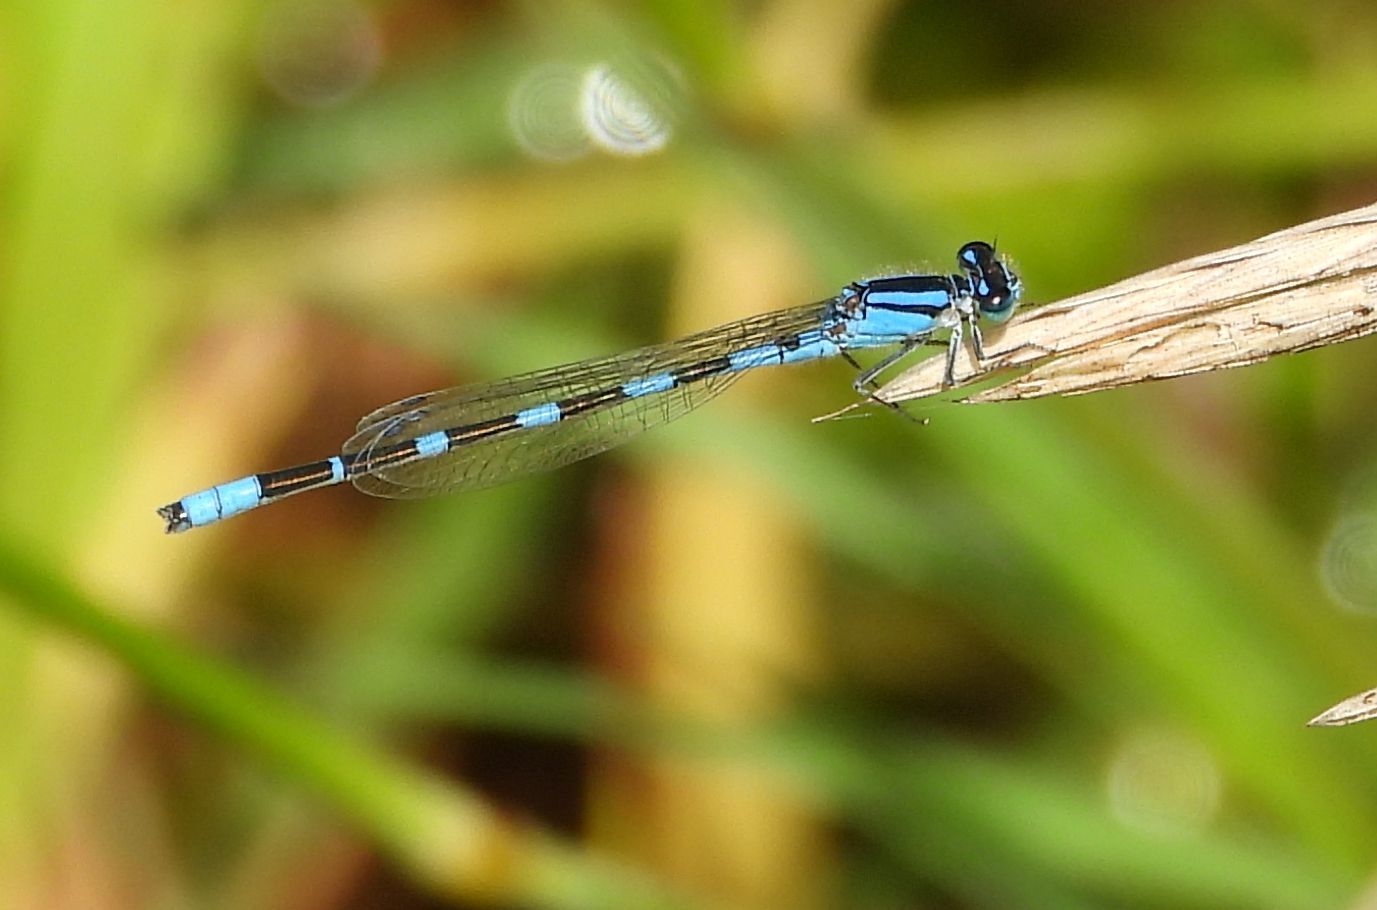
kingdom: Animalia
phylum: Arthropoda
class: Insecta
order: Odonata
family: Coenagrionidae
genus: Enallagma
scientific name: Enallagma carunculatum
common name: Tule bluet
